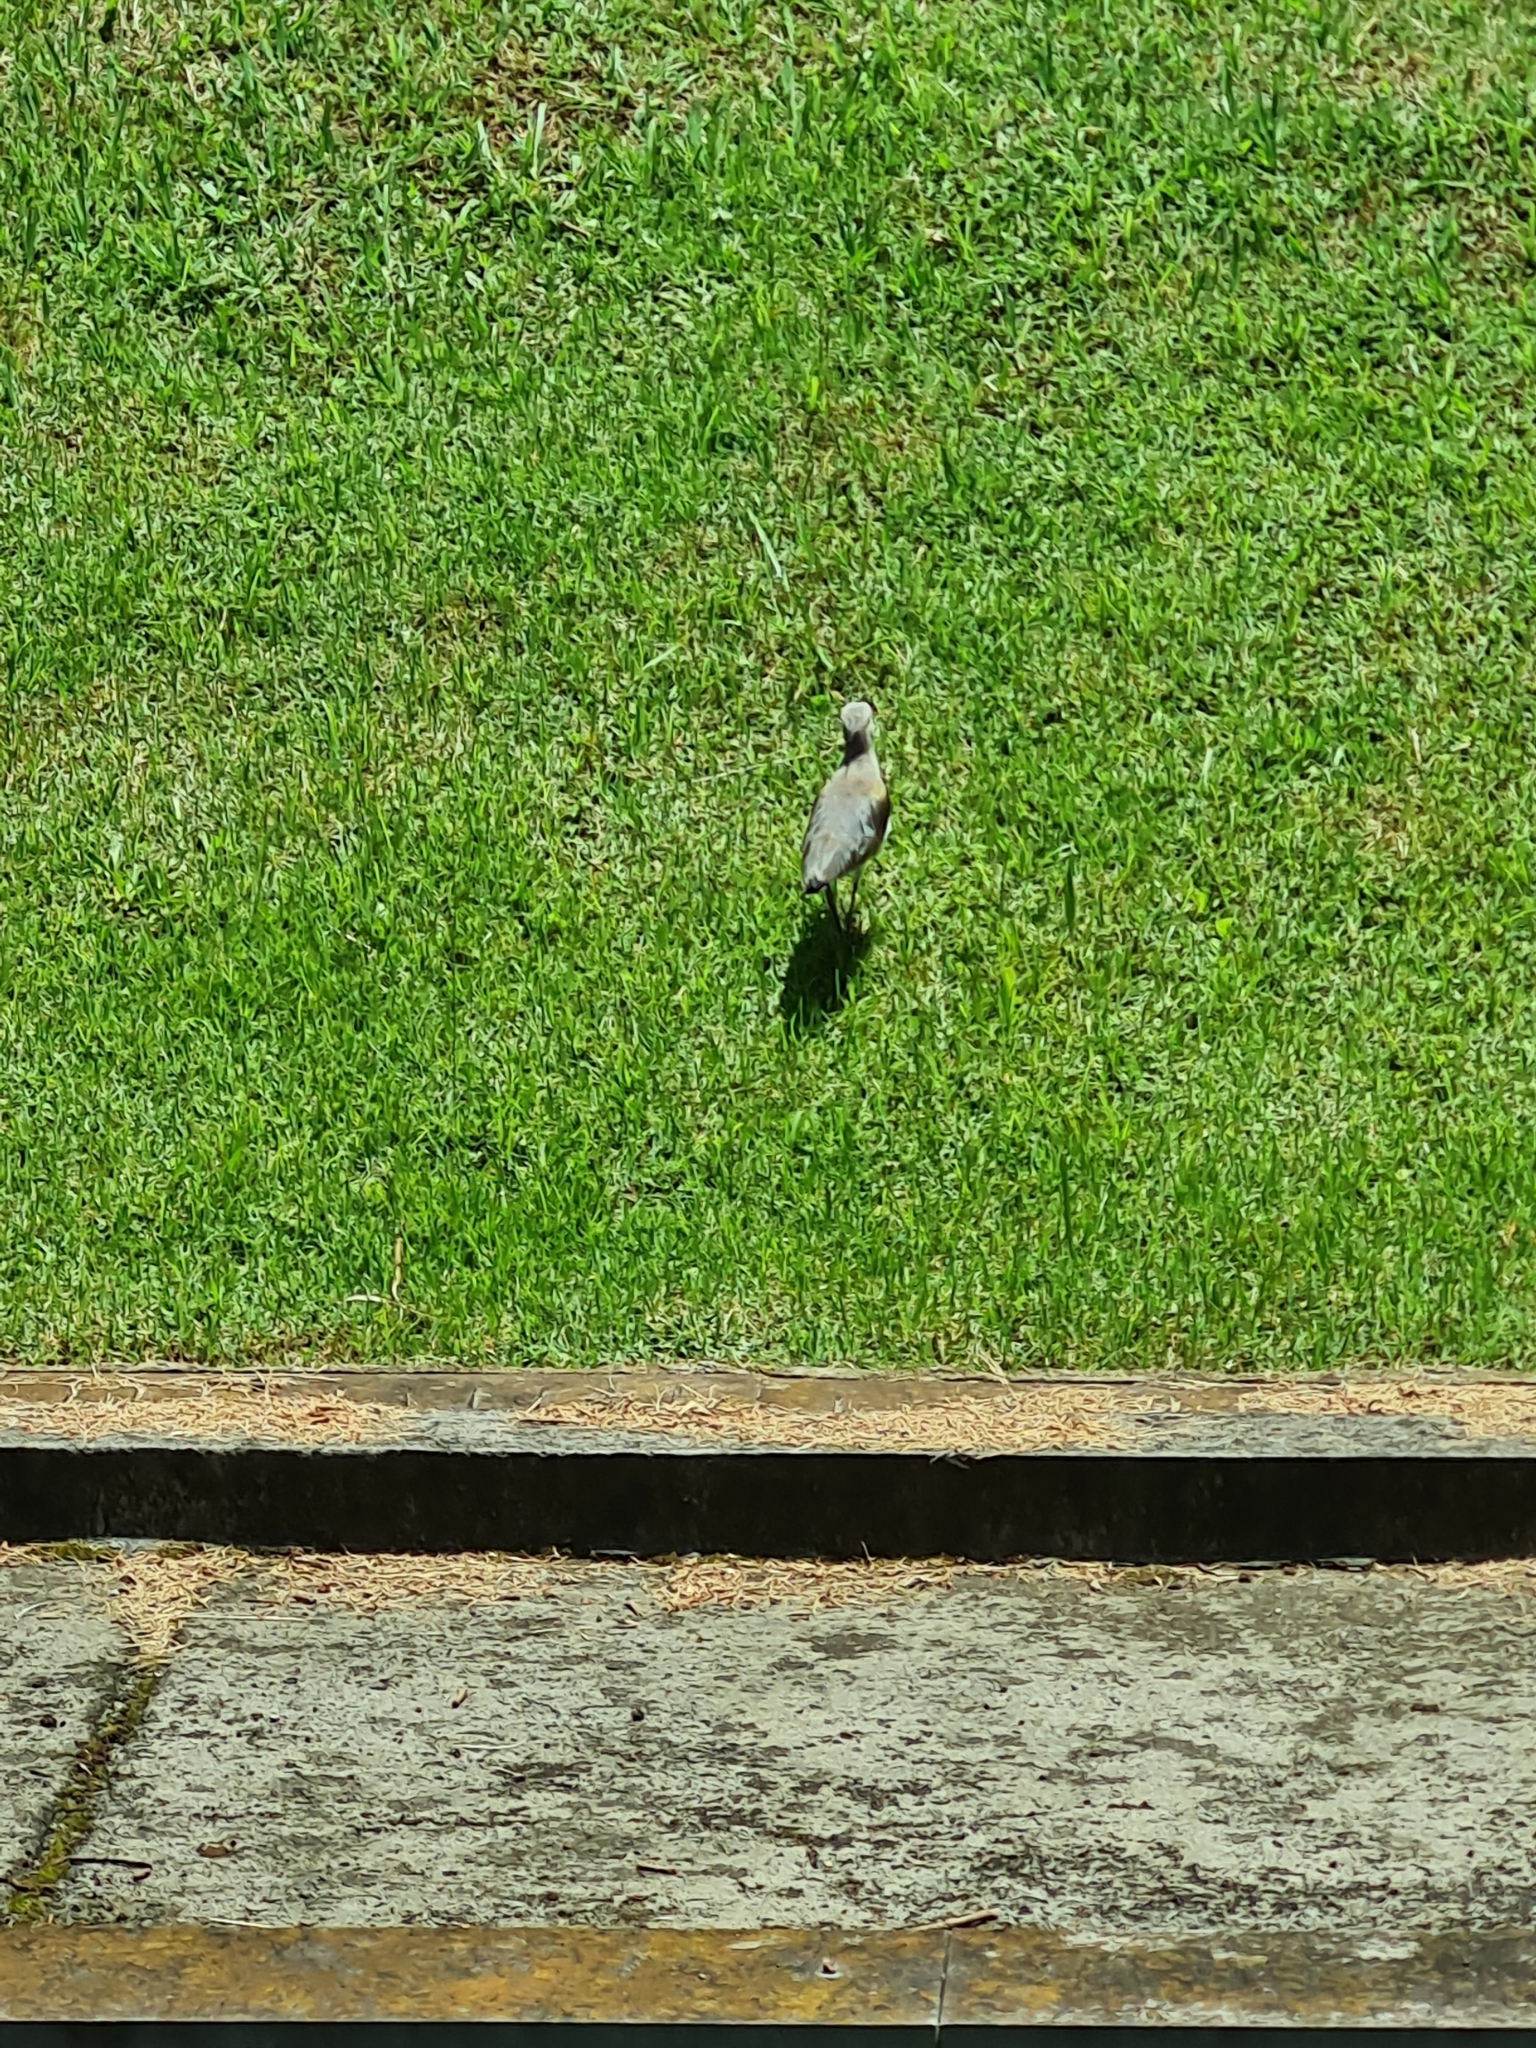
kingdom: Animalia
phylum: Chordata
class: Aves
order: Charadriiformes
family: Charadriidae
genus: Vanellus
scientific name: Vanellus chilensis
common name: Southern lapwing
